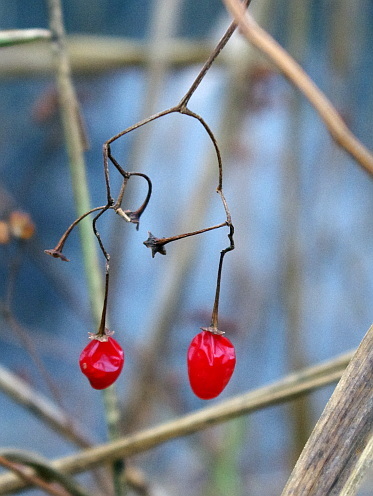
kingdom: Plantae
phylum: Tracheophyta
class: Magnoliopsida
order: Solanales
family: Solanaceae
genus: Solanum
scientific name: Solanum dulcamara
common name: Climbing nightshade
